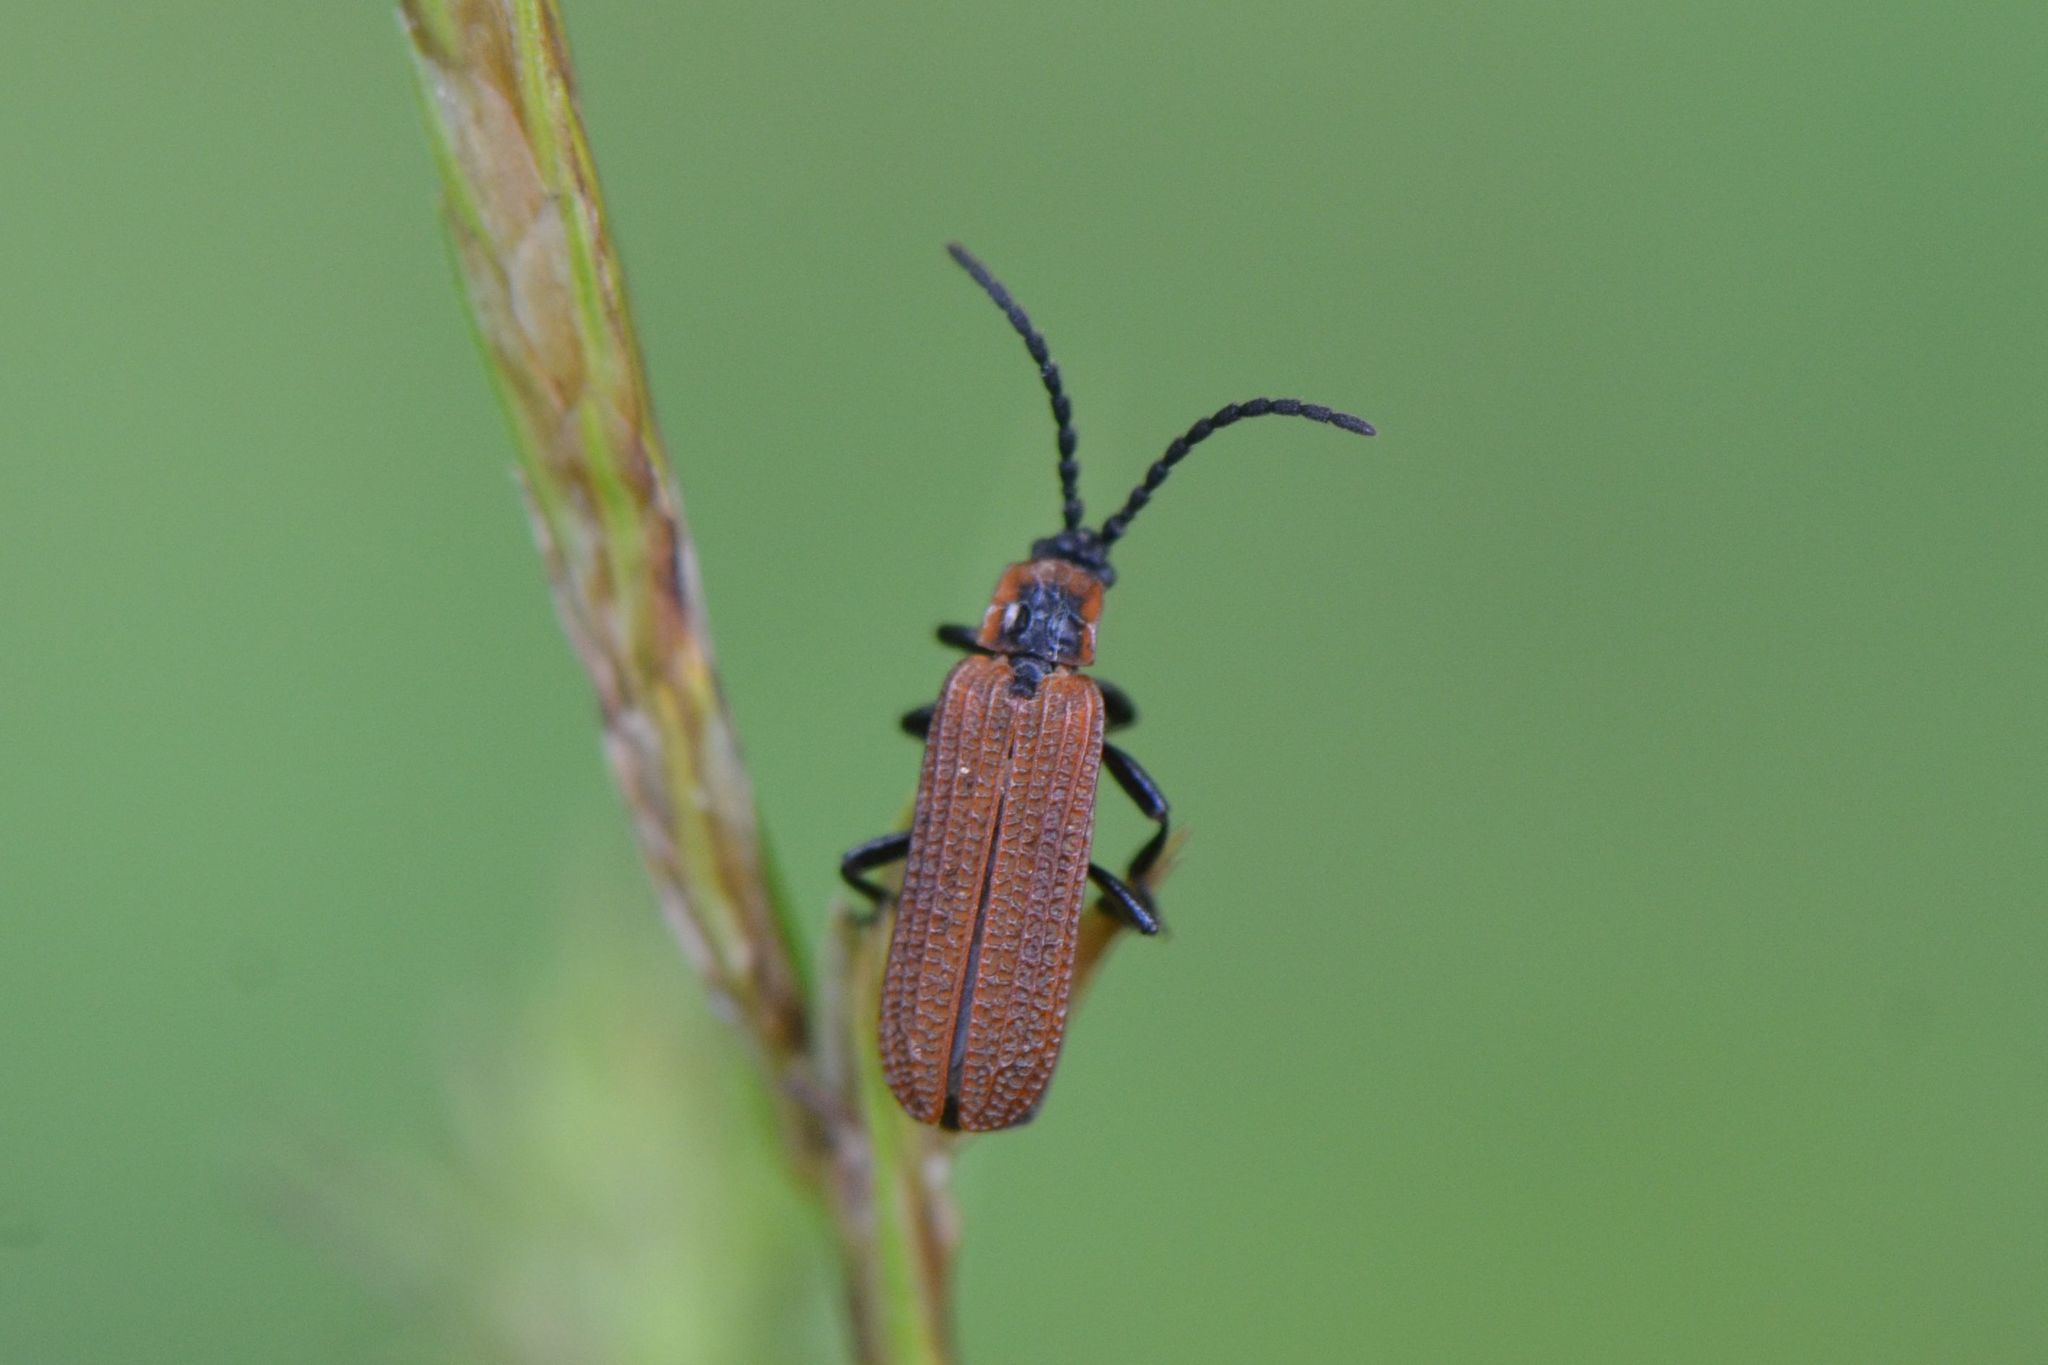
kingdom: Animalia
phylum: Arthropoda
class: Insecta
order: Coleoptera
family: Lycidae
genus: Erotides
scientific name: Erotides cosnardi
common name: Cosnard's net-winged beetle
